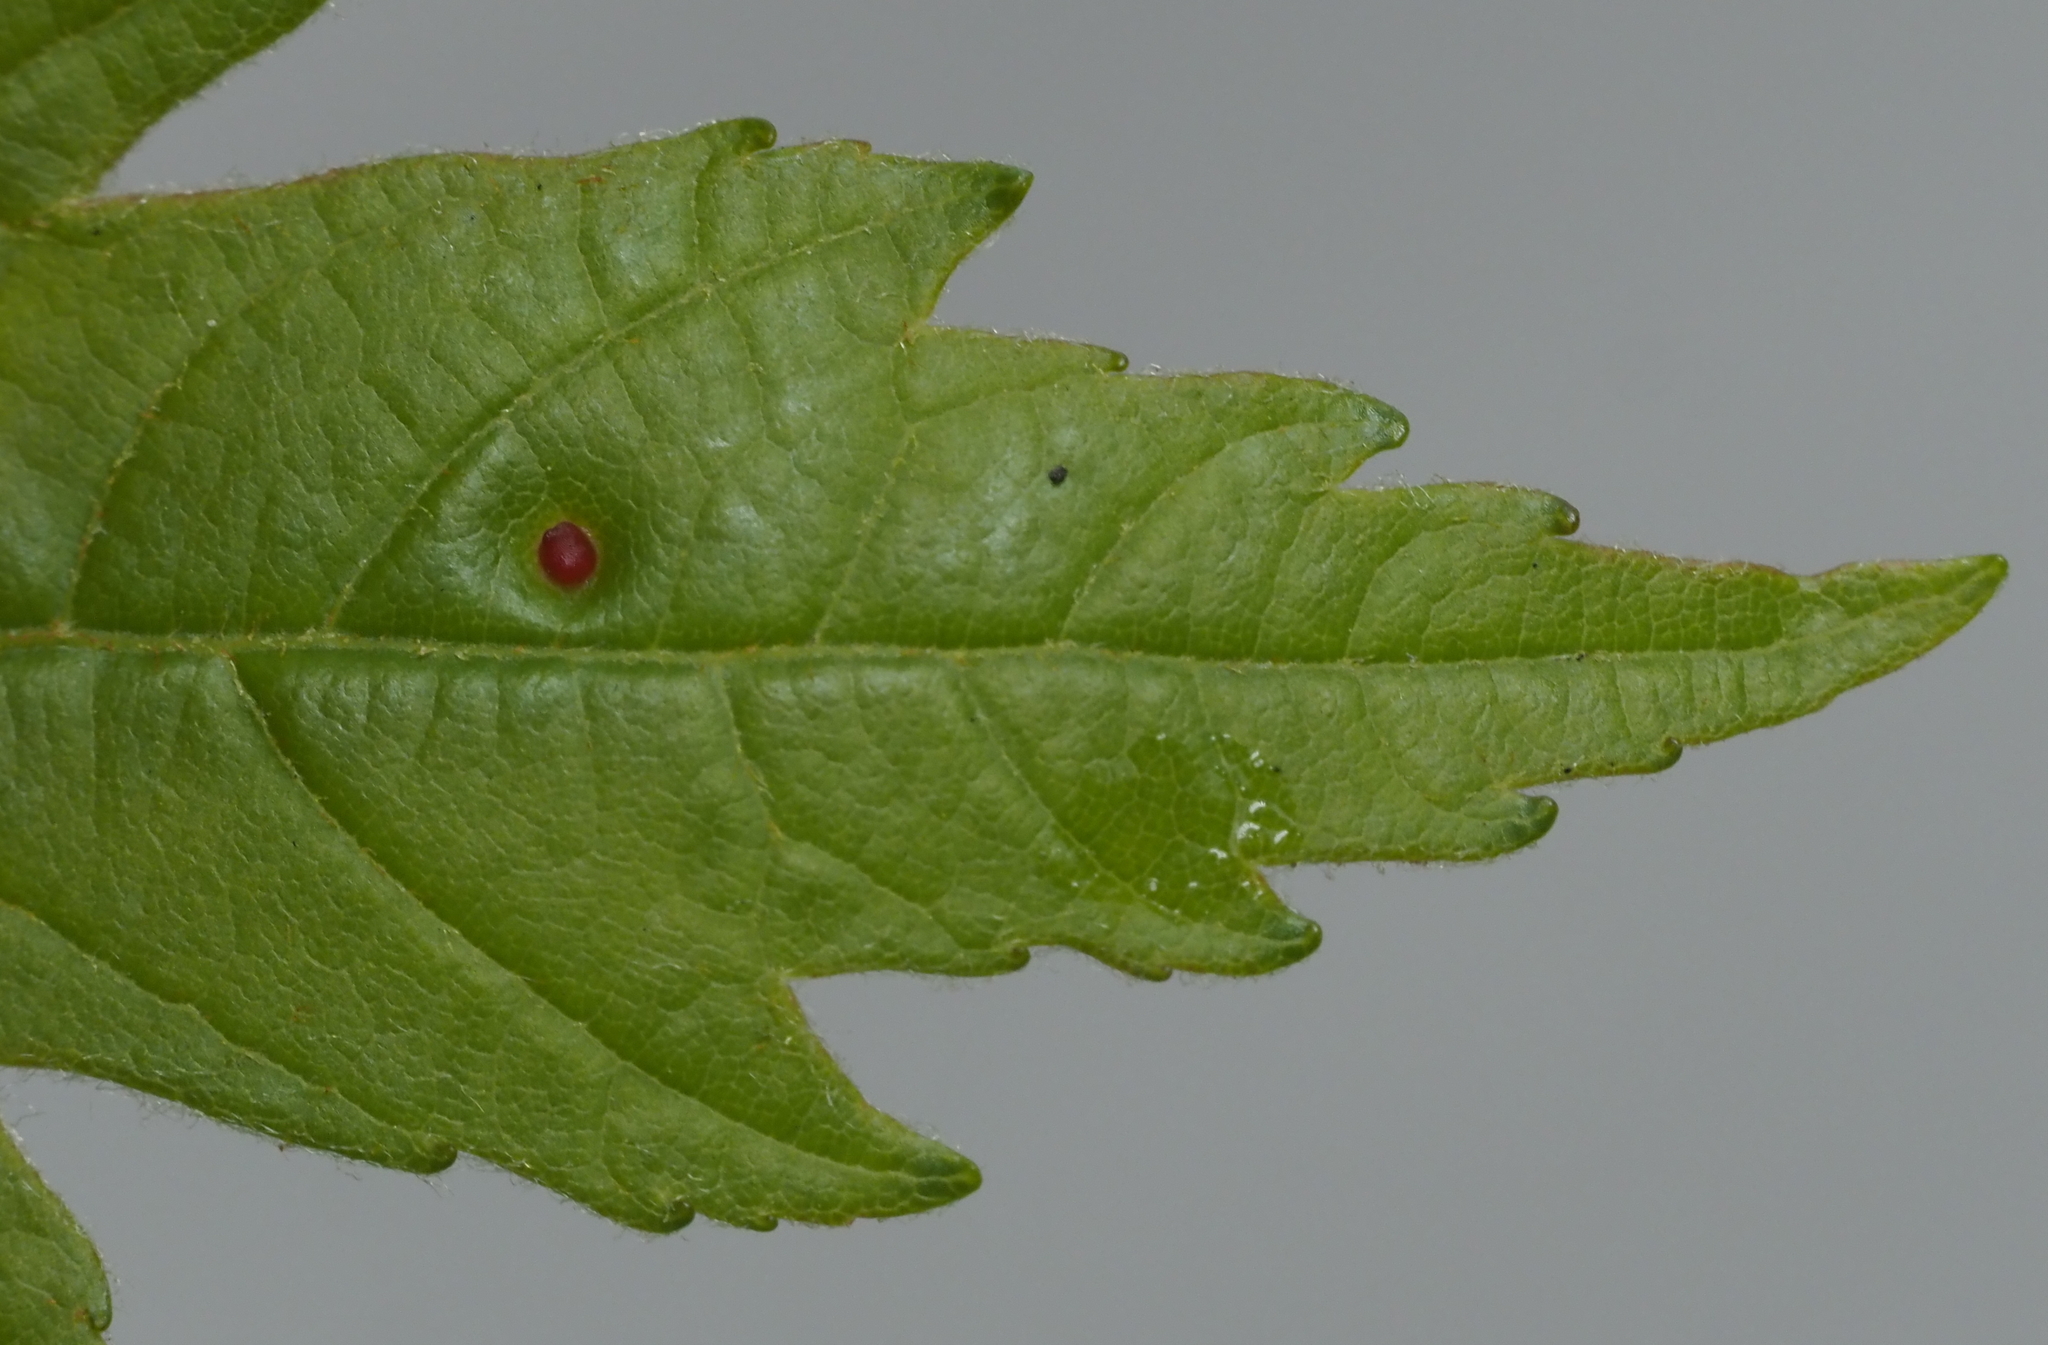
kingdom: Animalia
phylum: Arthropoda
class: Arachnida
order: Trombidiformes
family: Eriophyidae
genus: Vasates
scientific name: Vasates quadripedes
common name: Maple bladder gall mite
